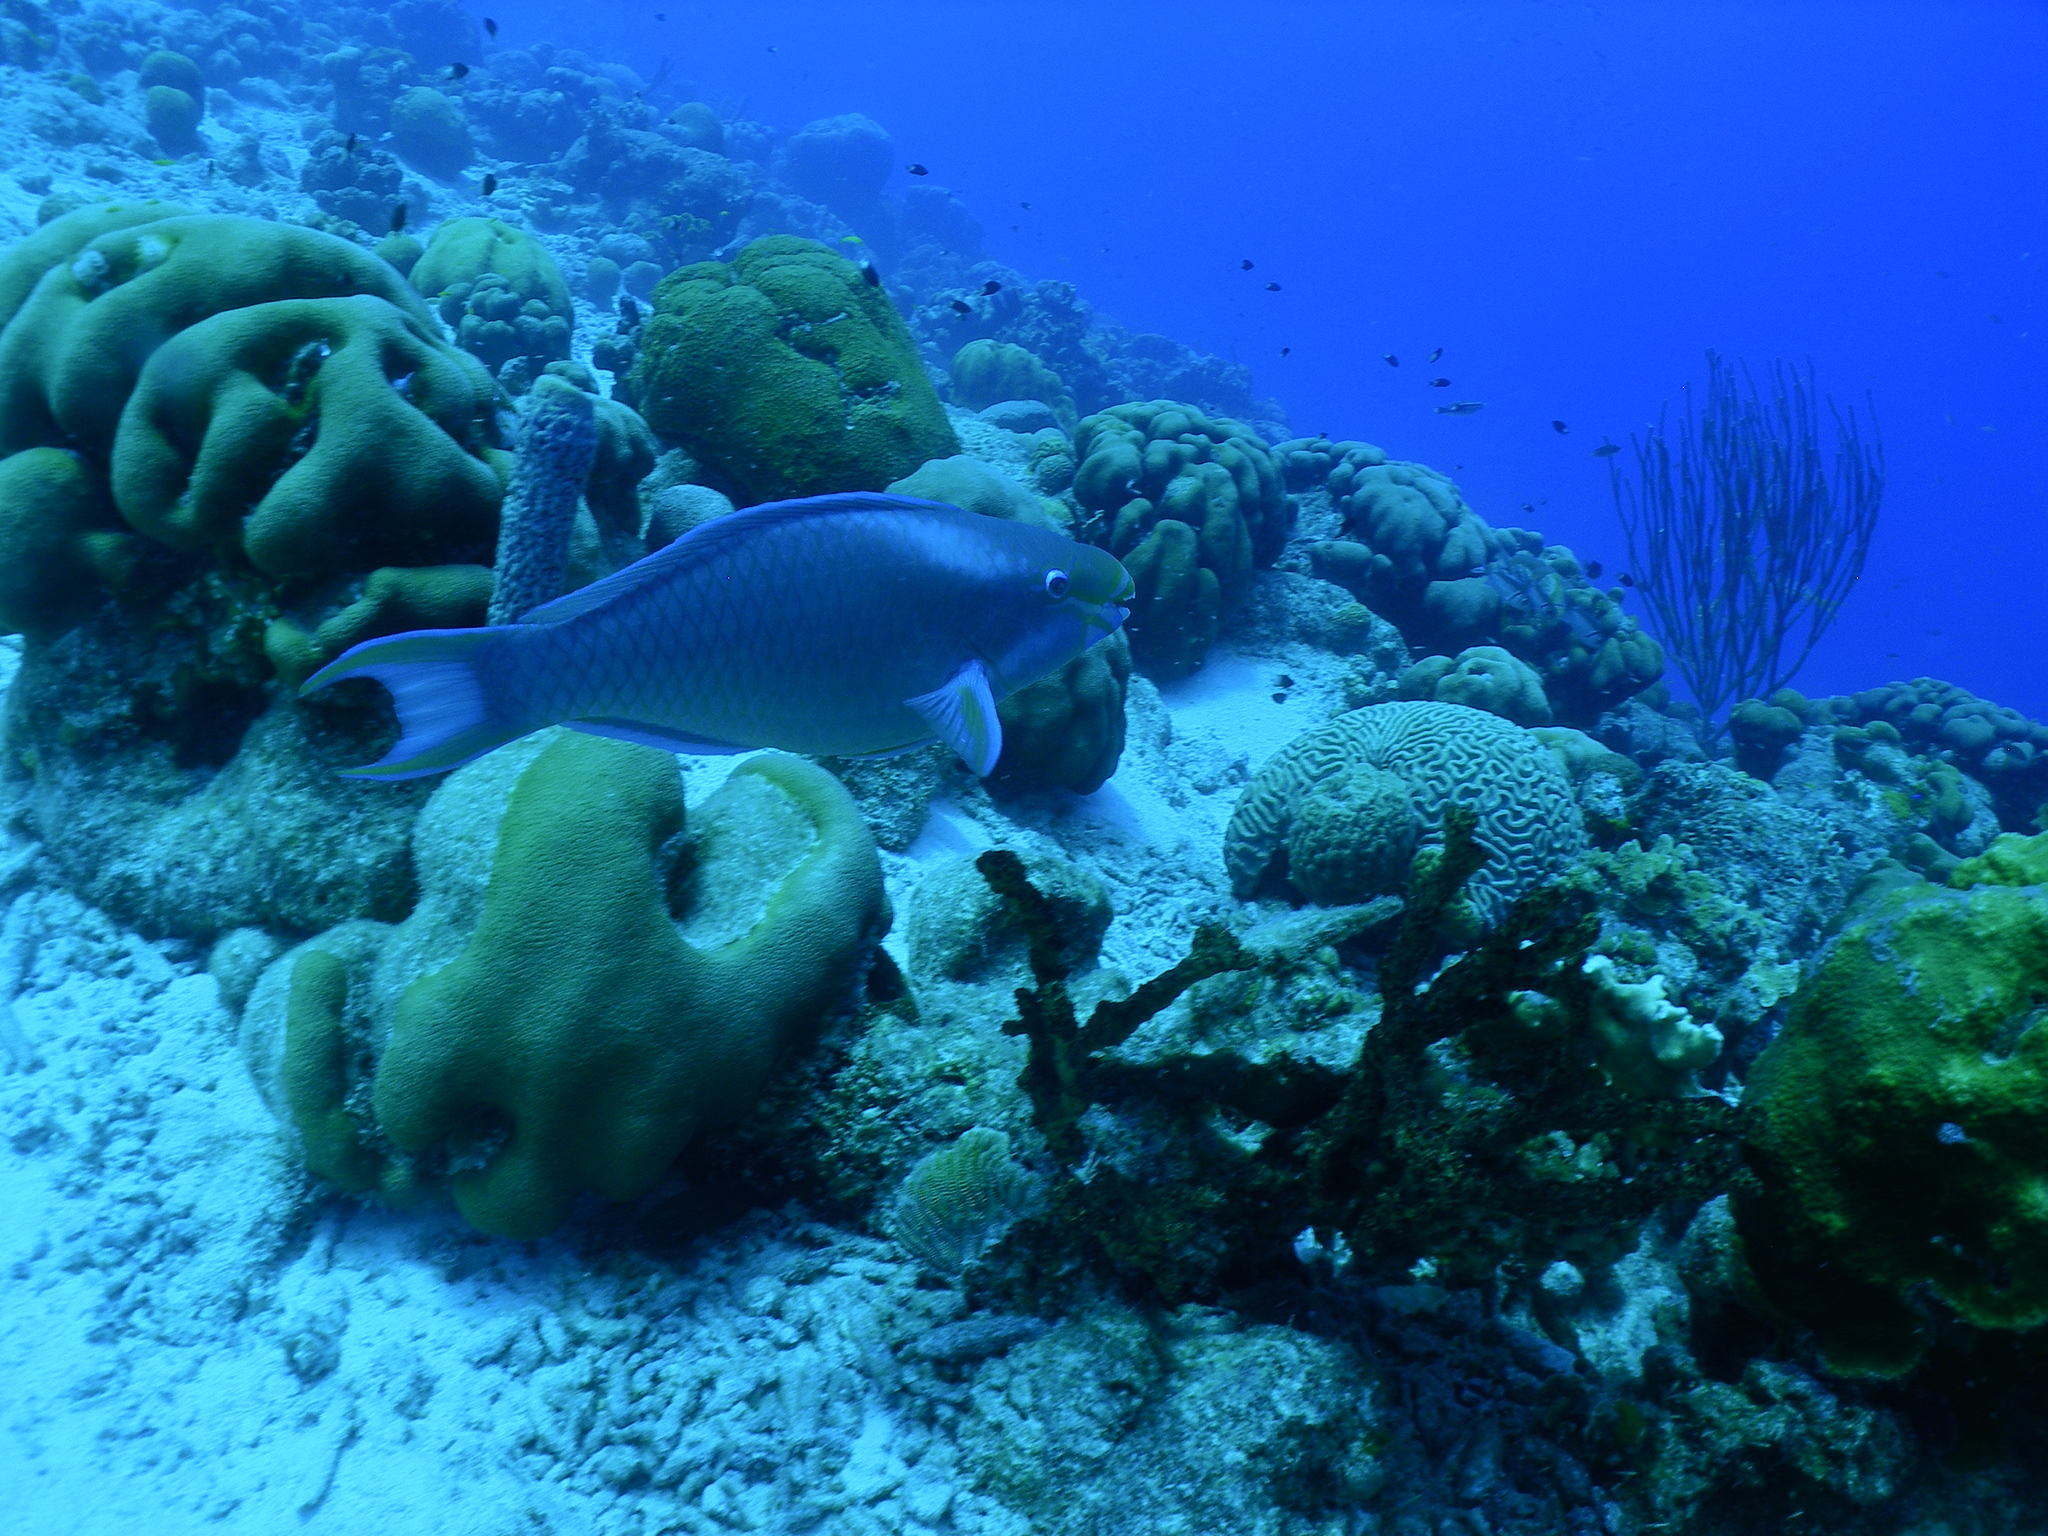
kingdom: Animalia
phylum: Chordata
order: Perciformes
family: Scaridae
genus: Scarus
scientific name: Scarus vetula
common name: Queen parrotfish
